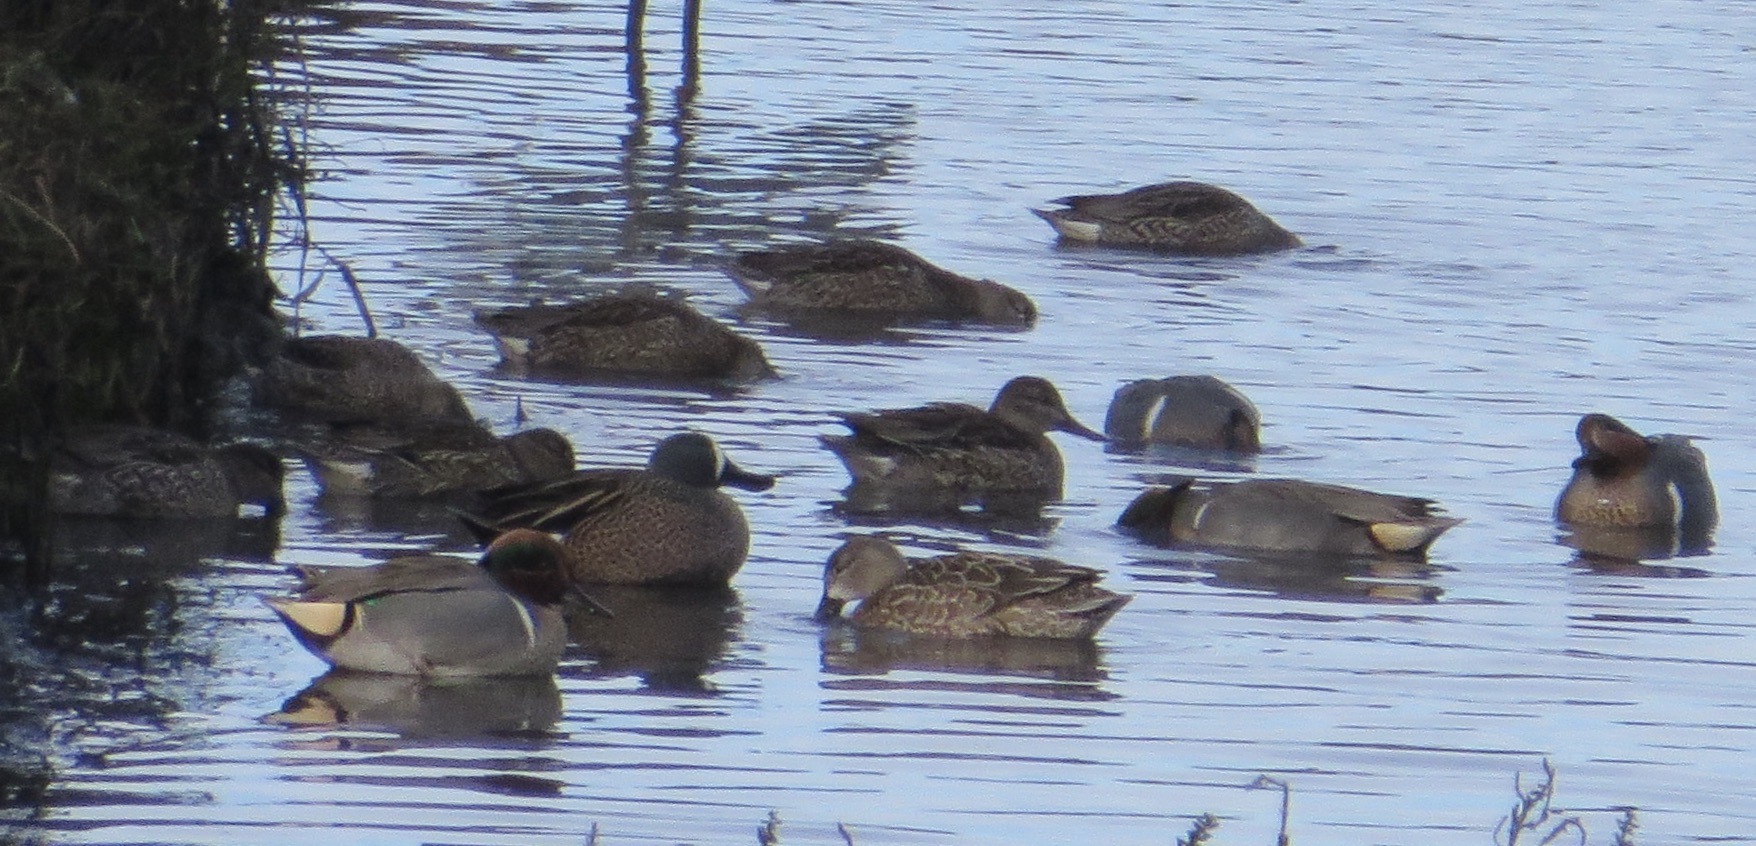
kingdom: Animalia
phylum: Chordata
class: Aves
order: Anseriformes
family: Anatidae
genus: Spatula
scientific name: Spatula discors
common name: Blue-winged teal
